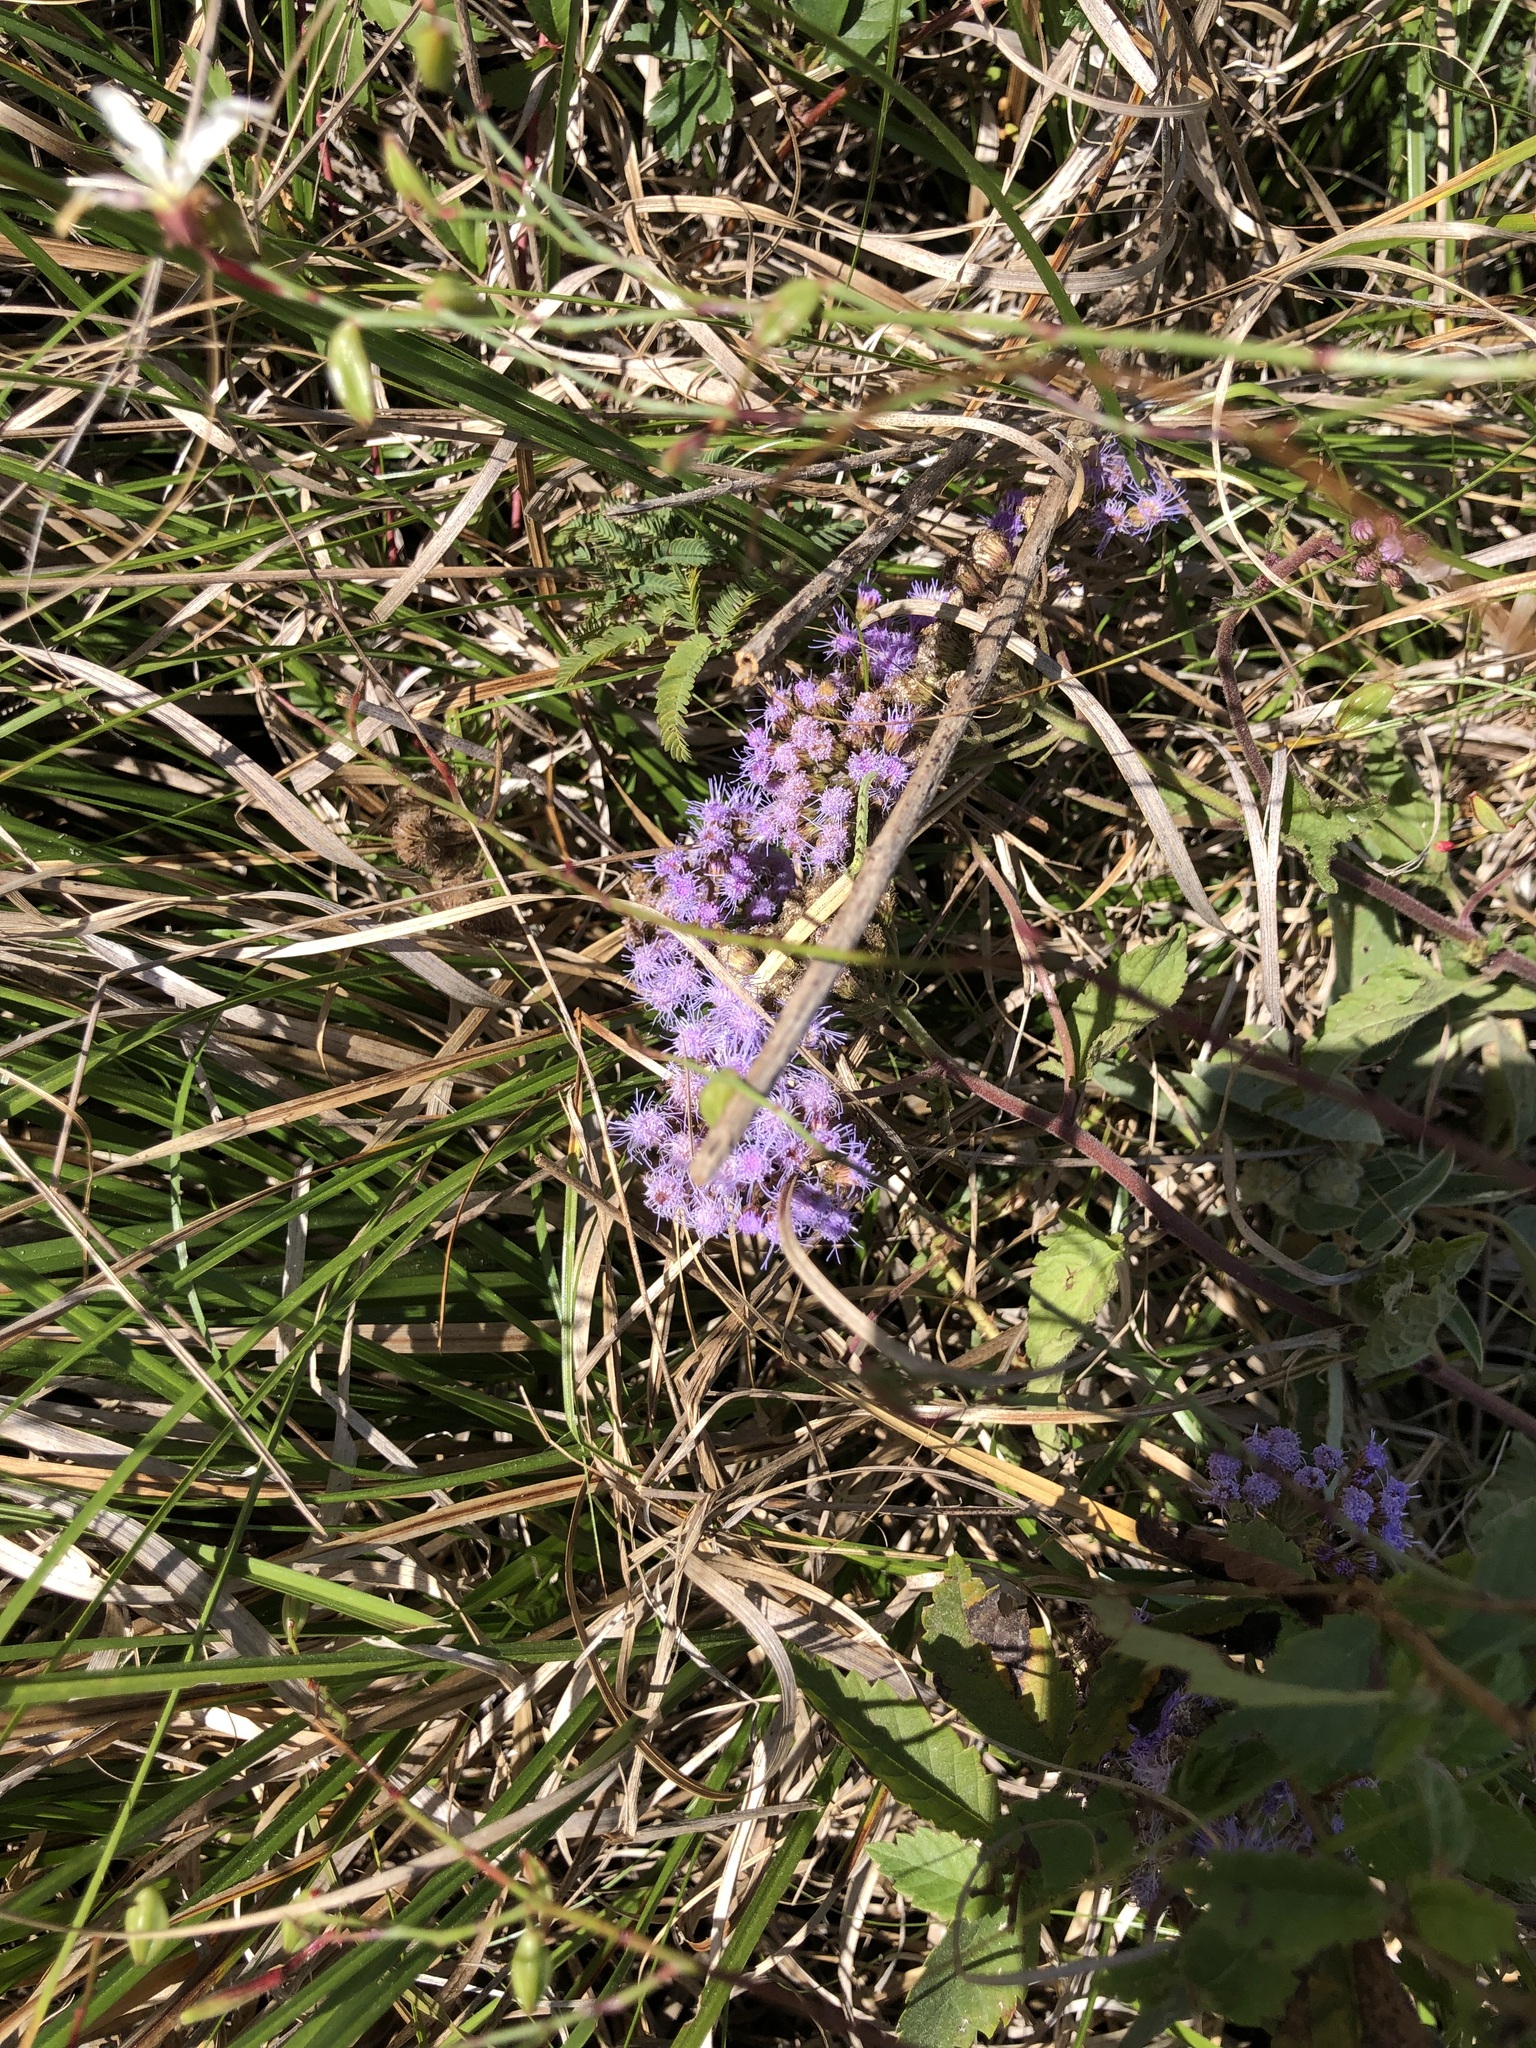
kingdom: Plantae
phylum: Tracheophyta
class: Magnoliopsida
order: Asterales
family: Asteraceae
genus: Conoclinium
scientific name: Conoclinium coelestinum
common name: Blue mistflower
